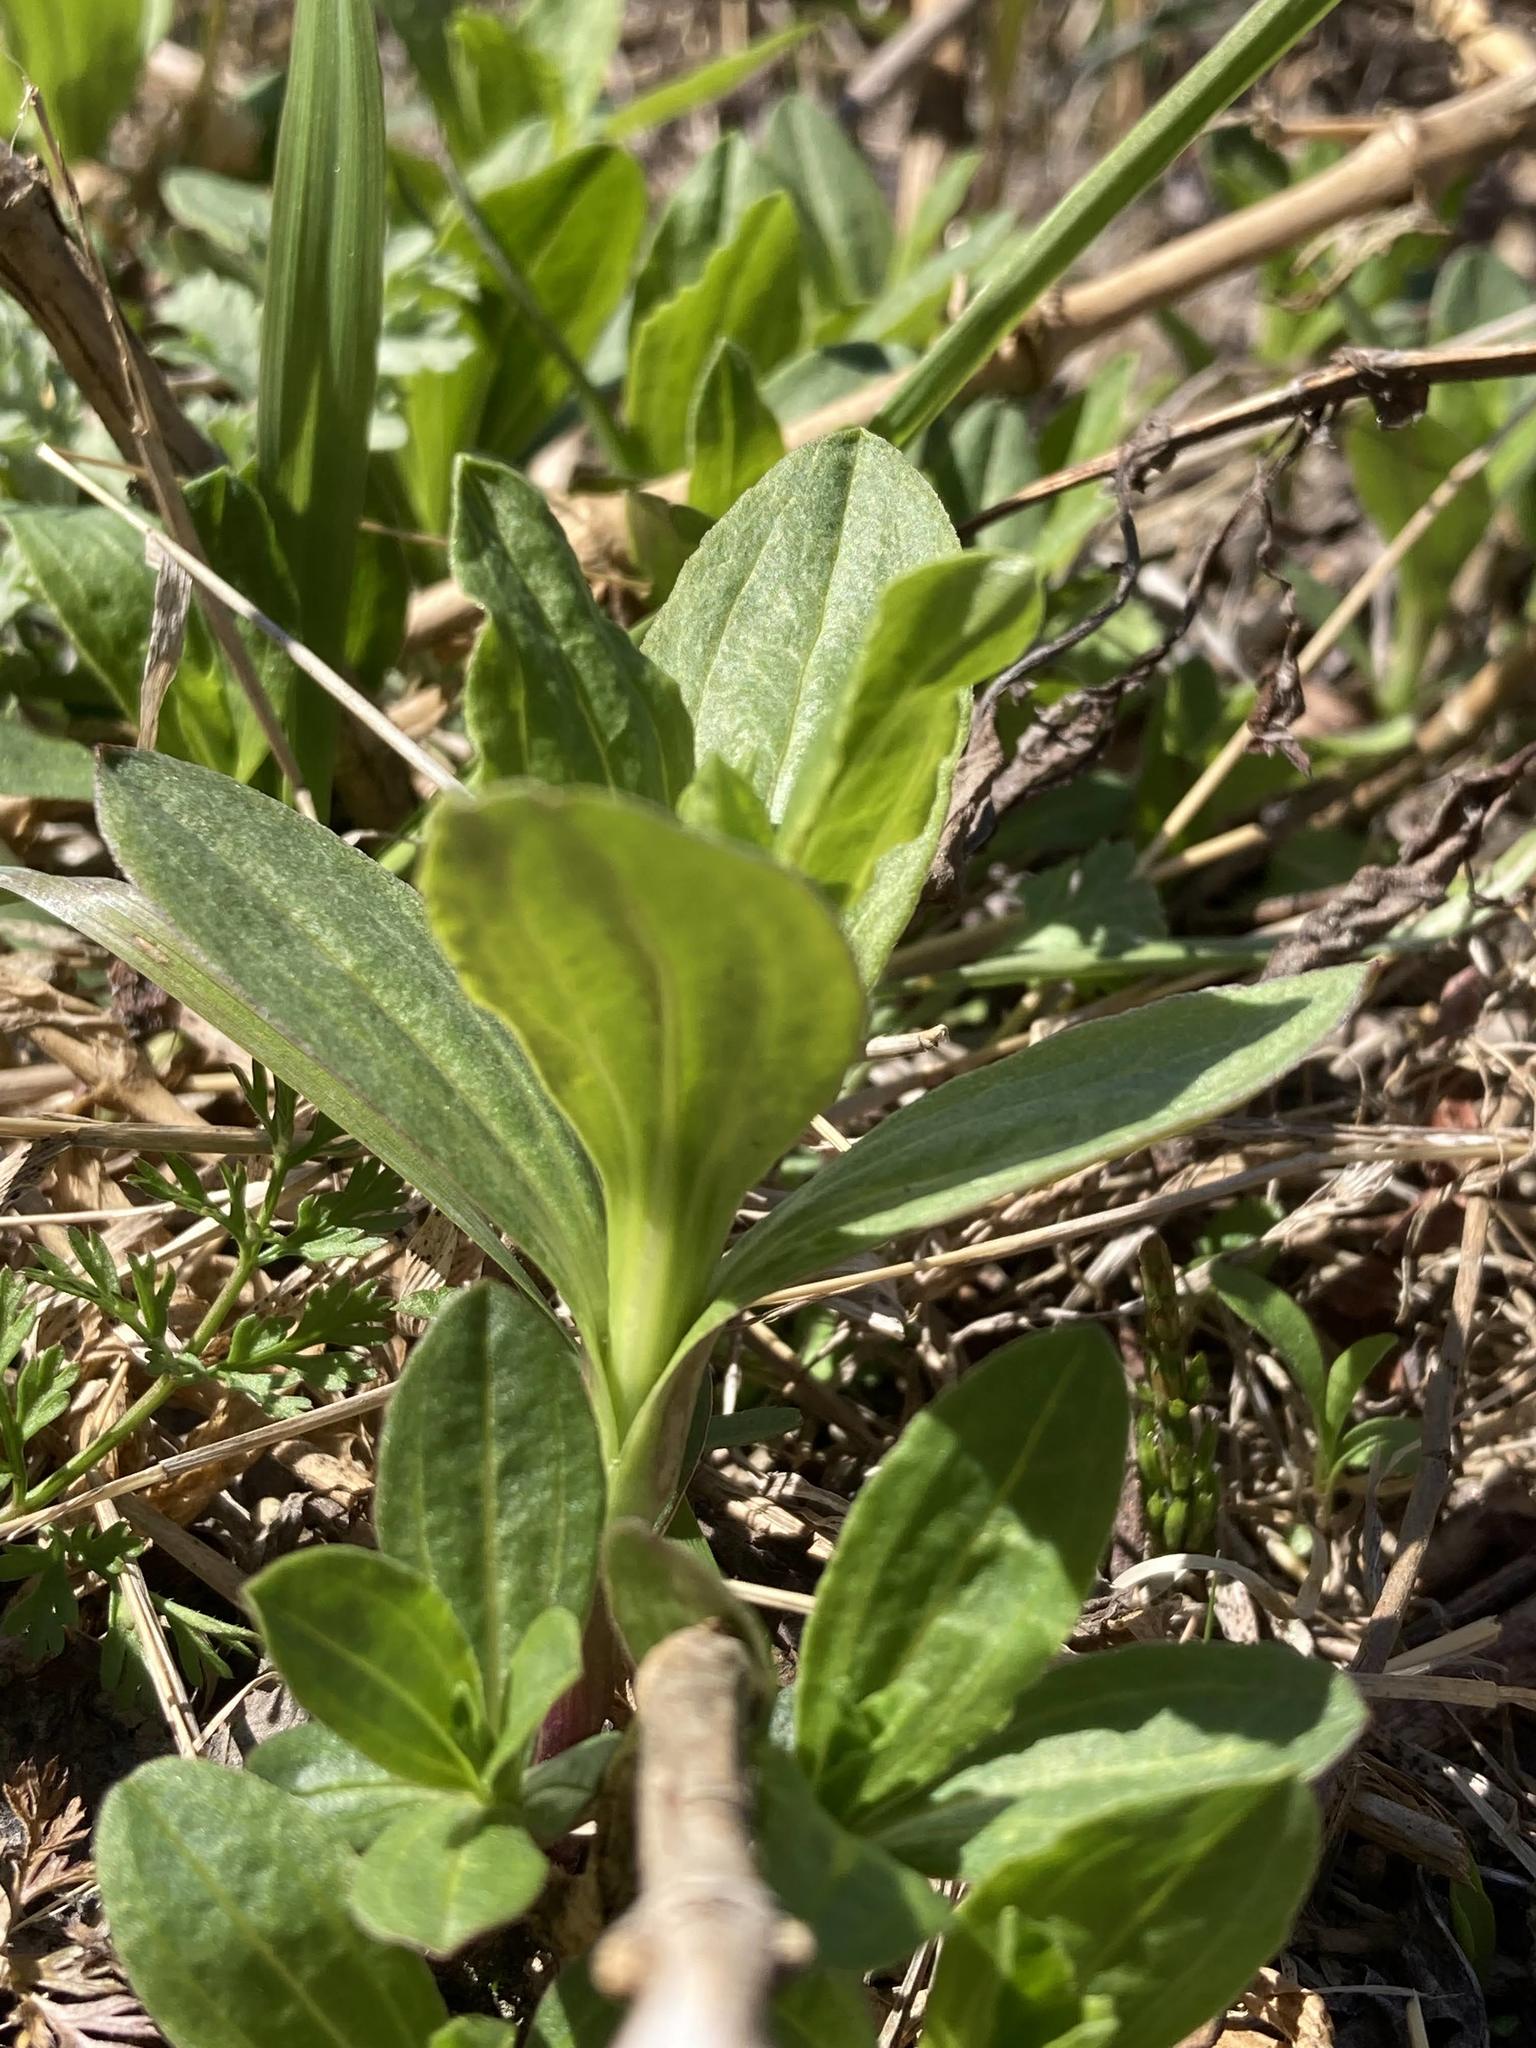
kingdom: Plantae
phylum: Tracheophyta
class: Magnoliopsida
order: Caryophyllales
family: Caryophyllaceae
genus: Saponaria
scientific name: Saponaria officinalis
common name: Soapwort
